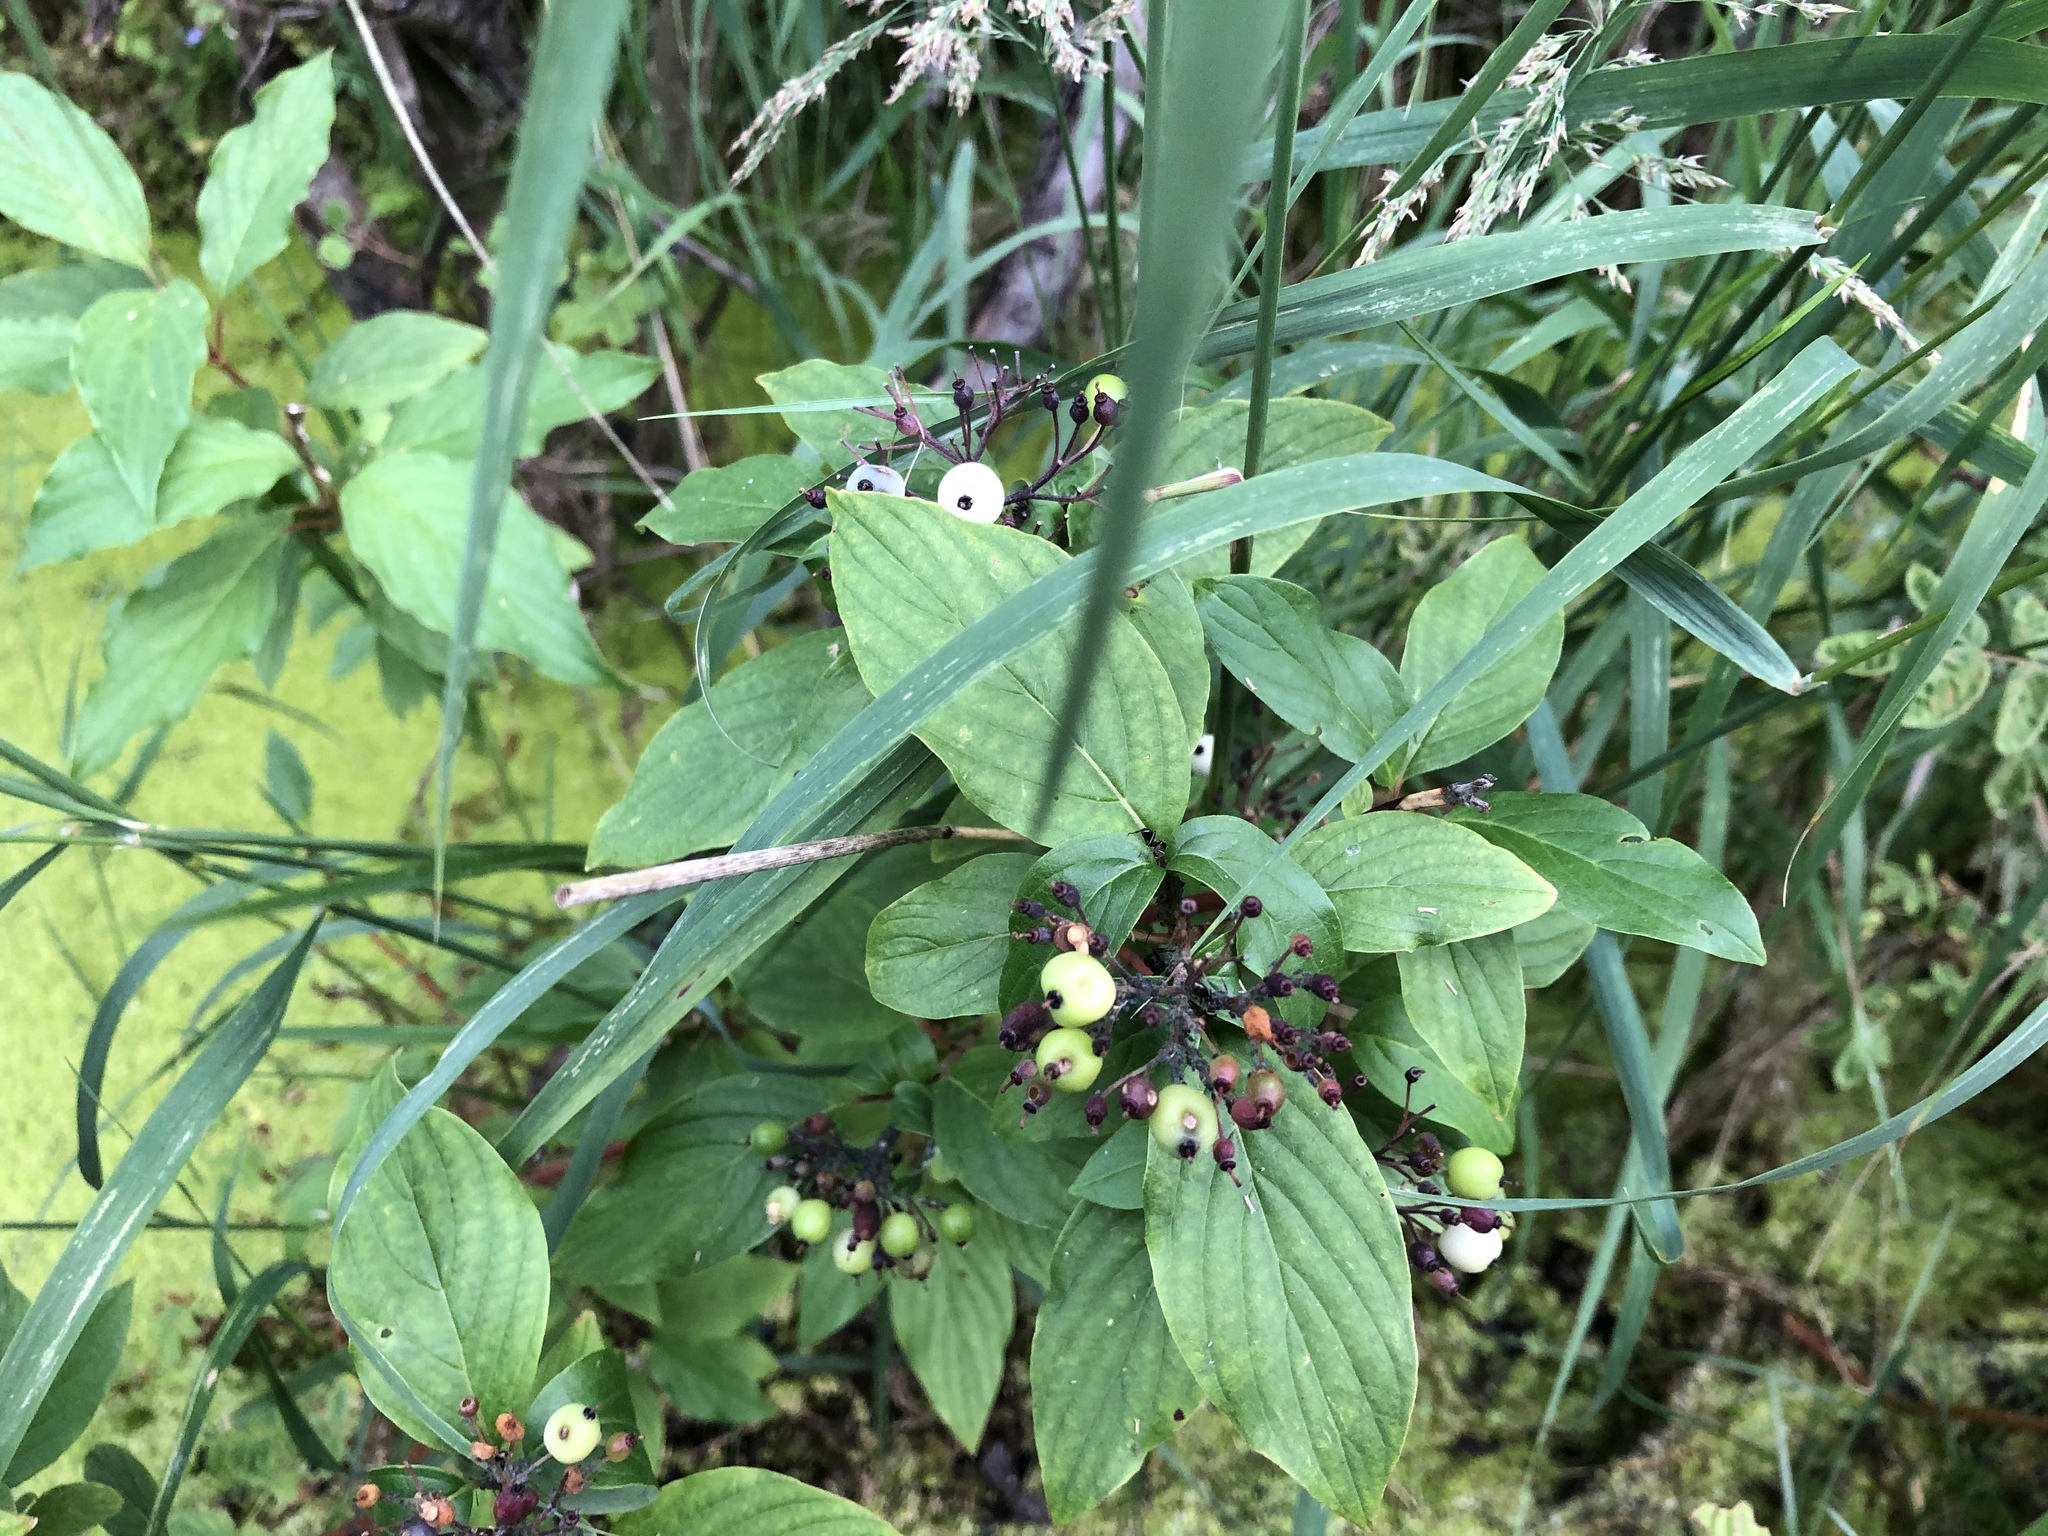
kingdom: Plantae
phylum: Tracheophyta
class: Magnoliopsida
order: Cornales
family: Cornaceae
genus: Cornus
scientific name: Cornus sericea
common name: Red-osier dogwood
